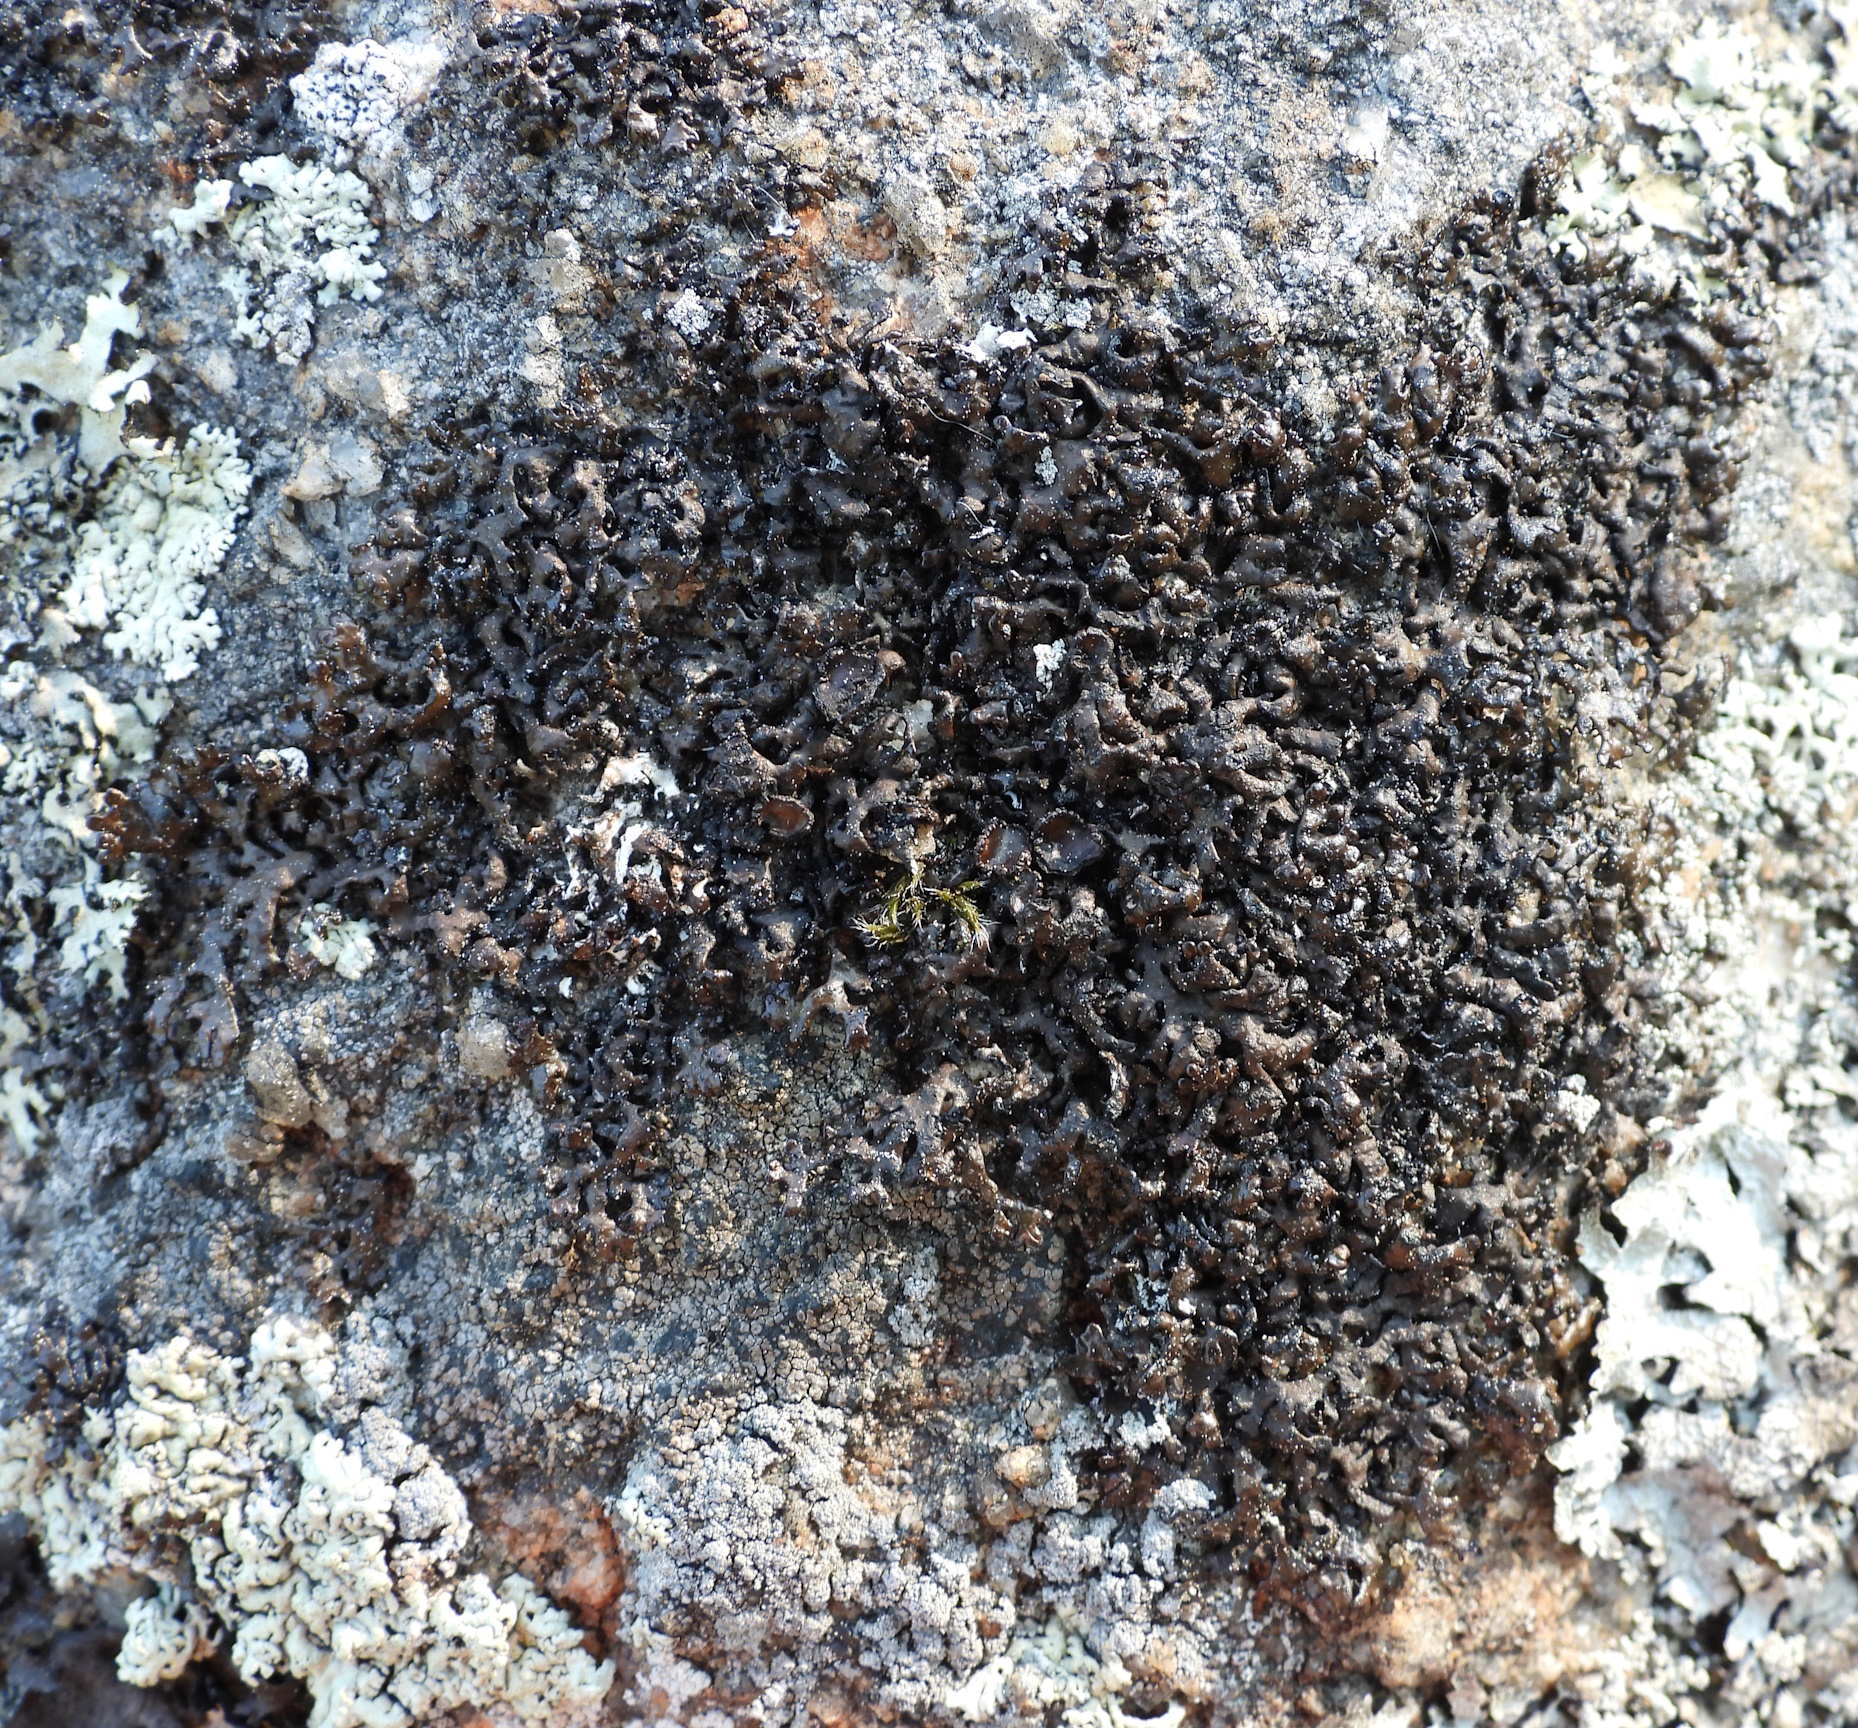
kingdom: Fungi
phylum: Ascomycota
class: Lecanoromycetes
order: Lecanorales
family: Parmeliaceae
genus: Melanelia
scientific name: Melanelia stygia
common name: Alpine camouflage lichen
